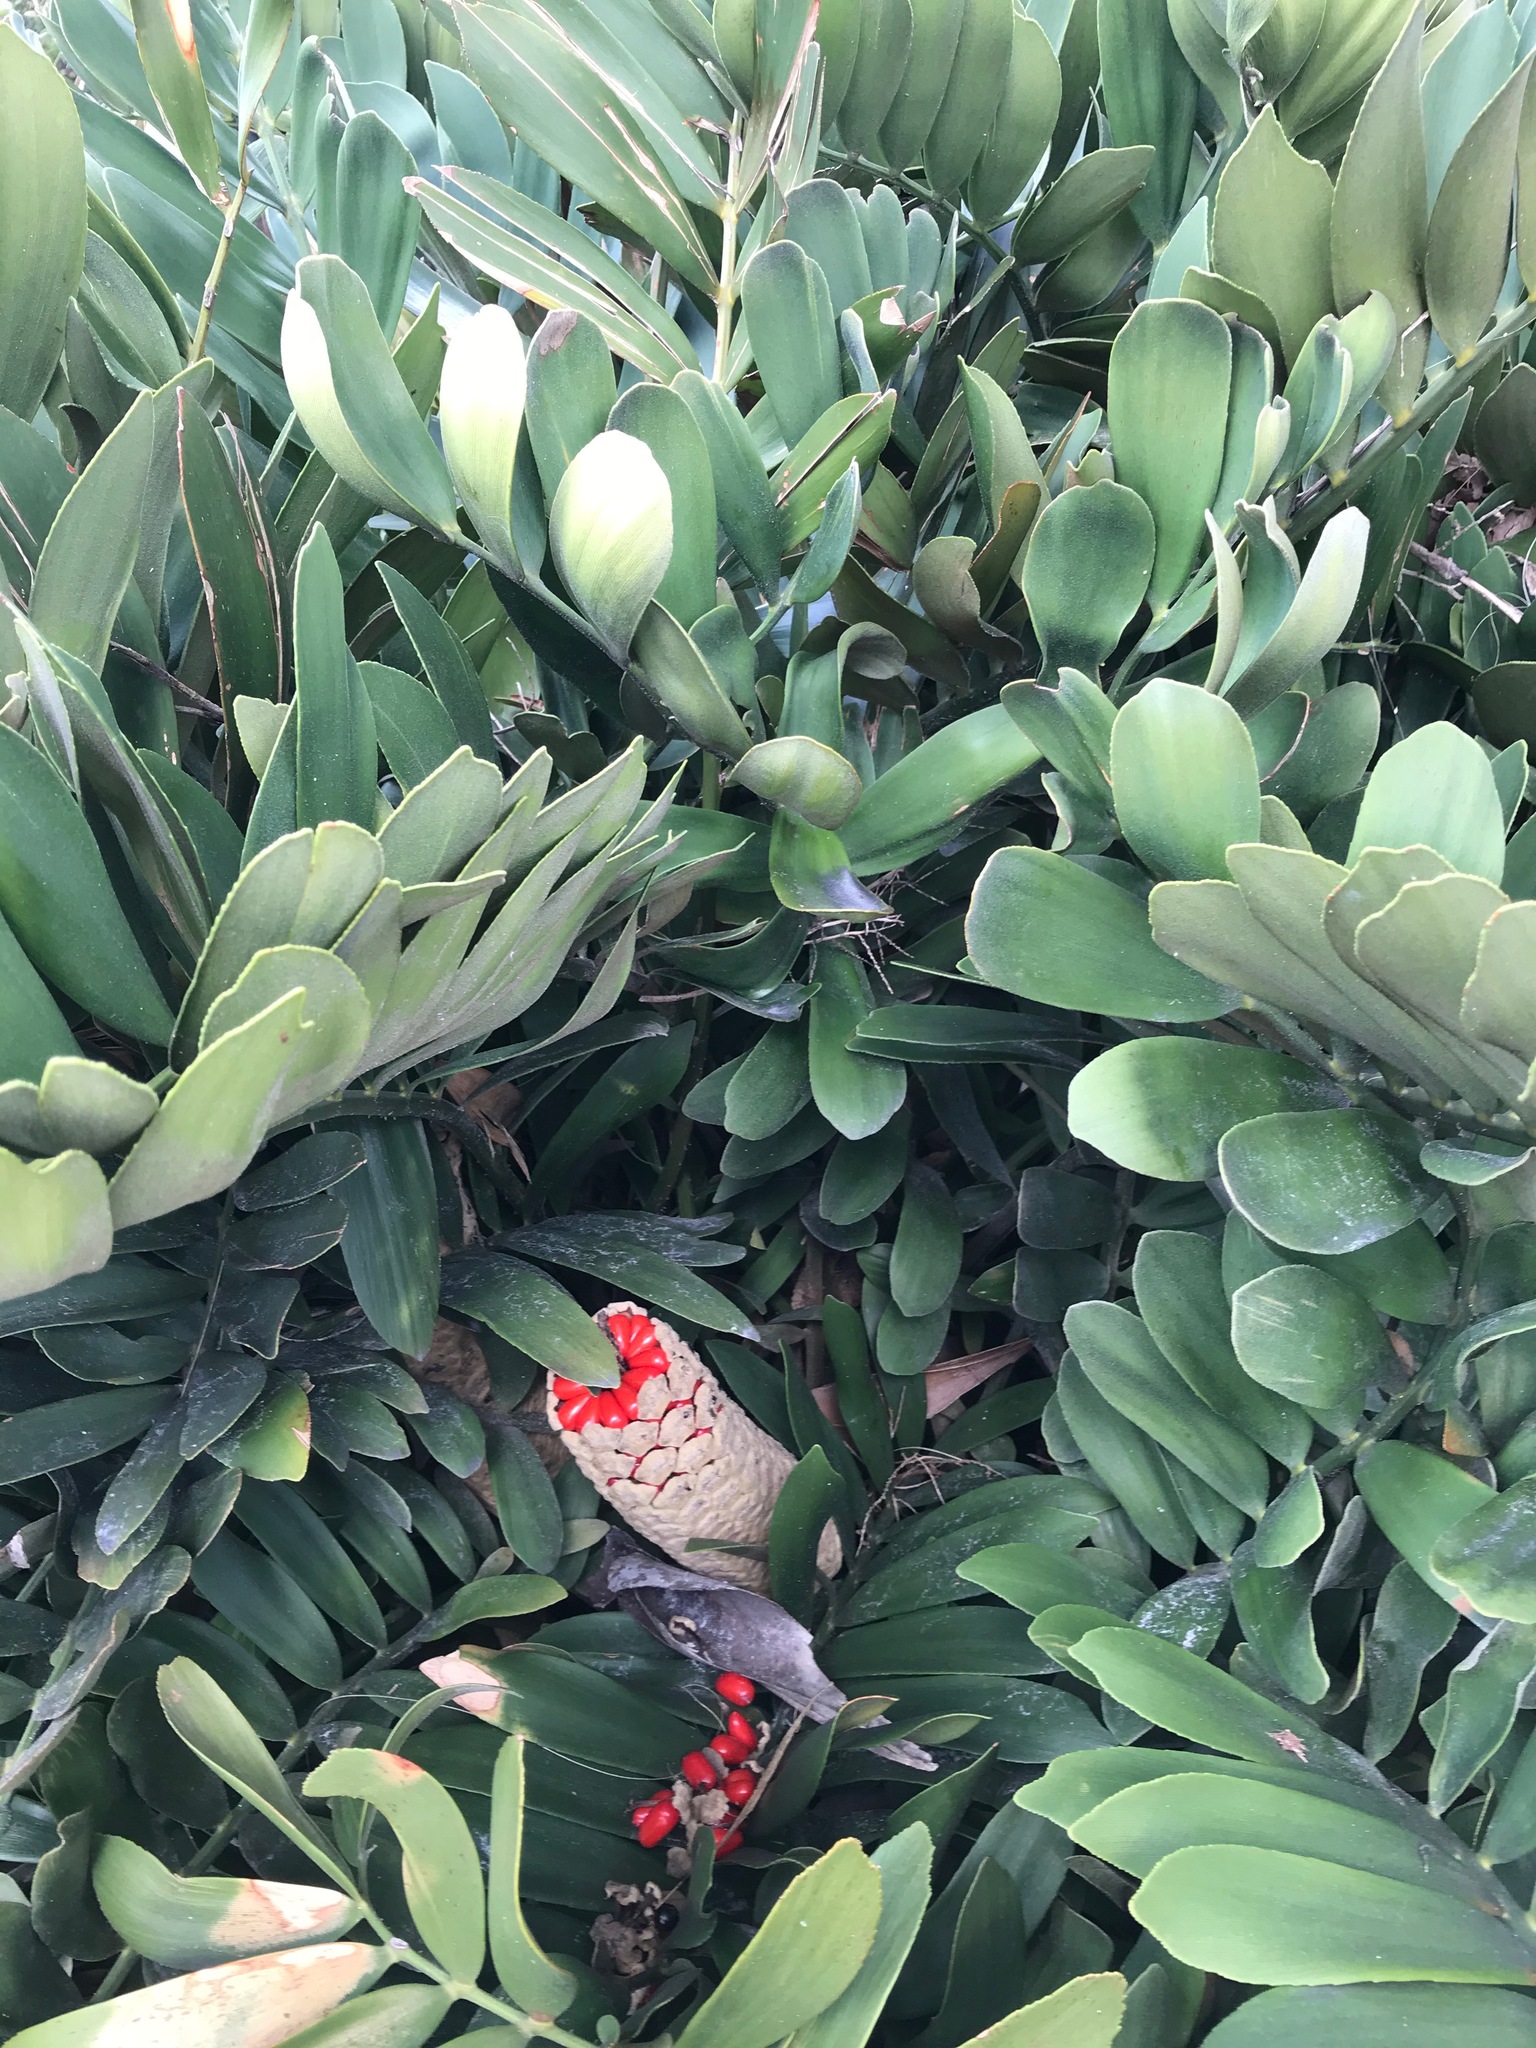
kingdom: Plantae
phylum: Tracheophyta
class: Cycadopsida
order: Cycadales
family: Zamiaceae
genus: Zamia
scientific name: Zamia furfuracea
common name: Cardboard palm
